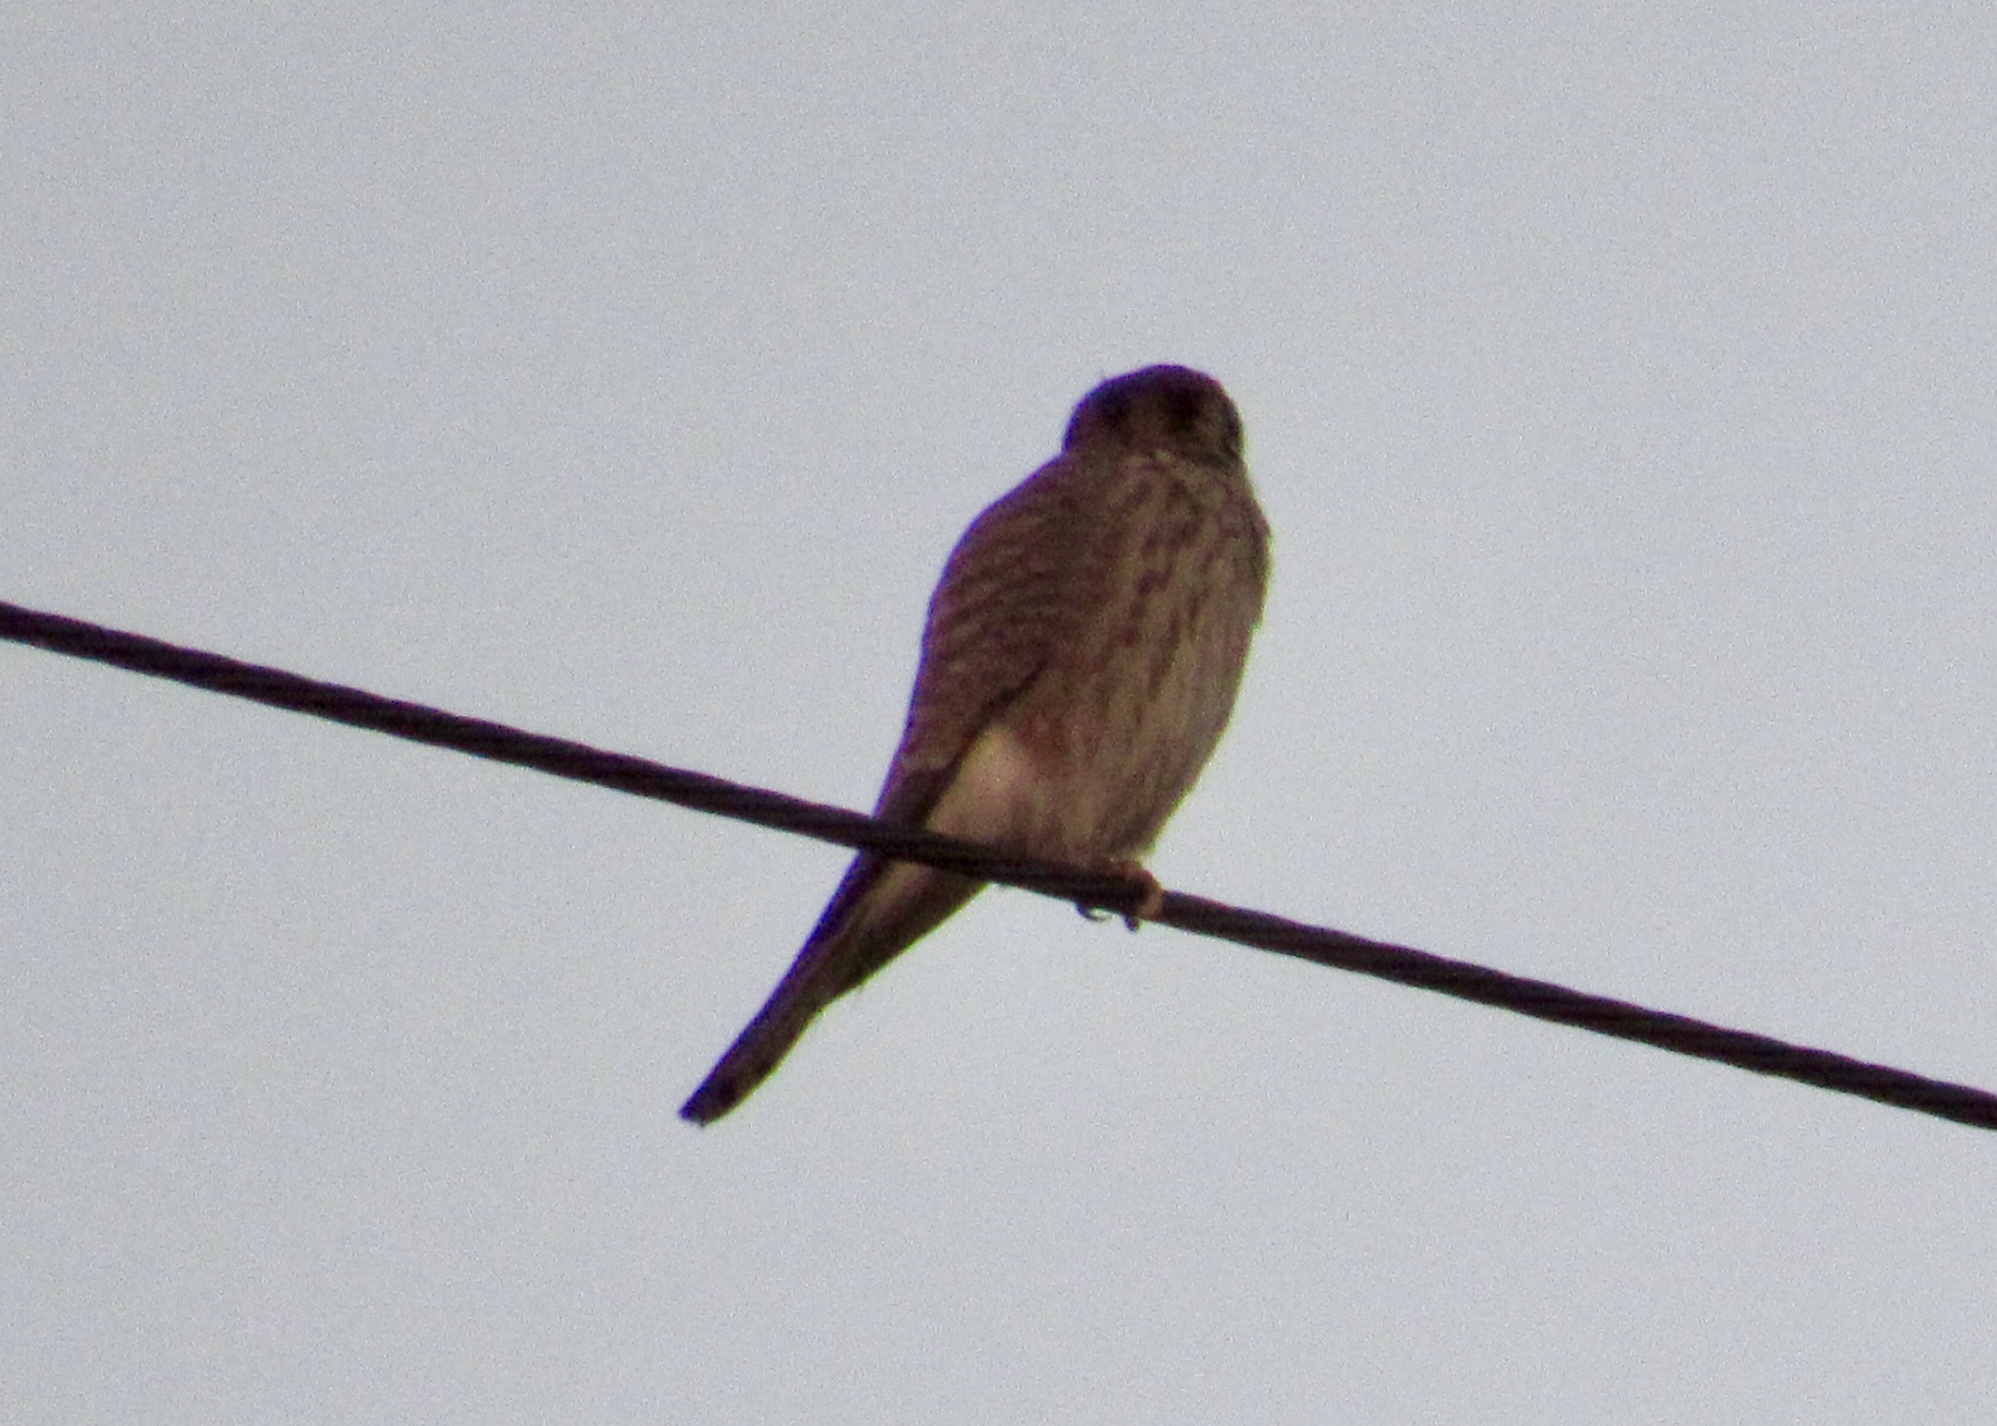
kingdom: Animalia
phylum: Chordata
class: Aves
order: Falconiformes
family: Falconidae
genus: Falco
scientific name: Falco sparverius
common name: American kestrel
